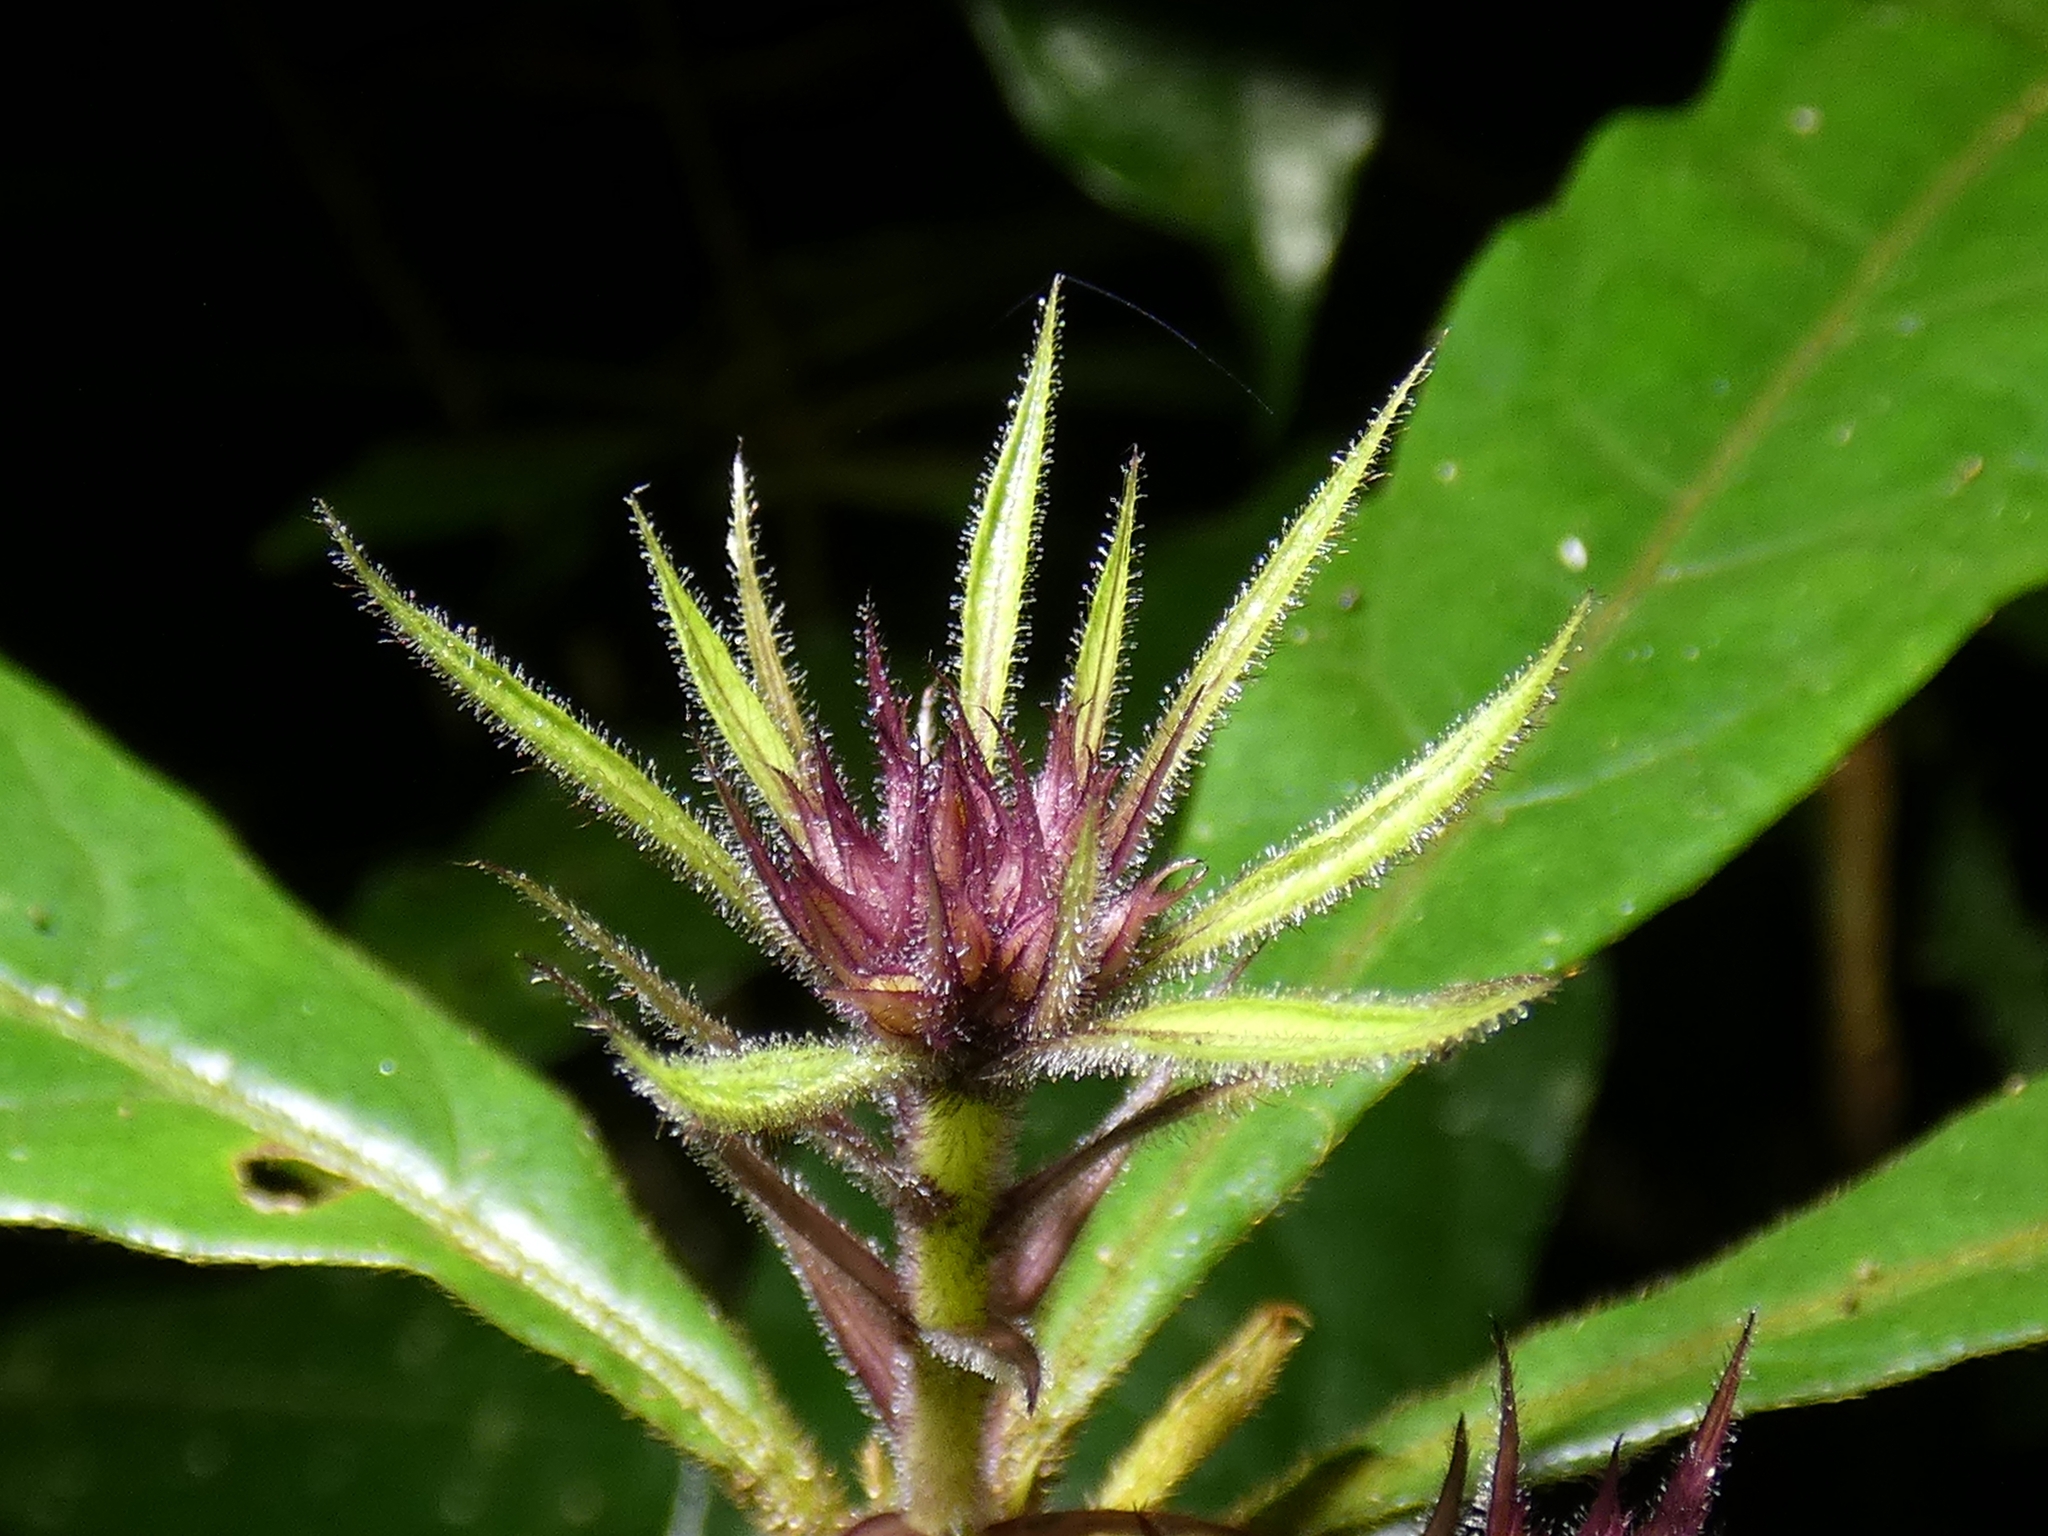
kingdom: Plantae
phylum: Tracheophyta
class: Magnoliopsida
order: Apiales
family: Pittosporaceae
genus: Pittosporum
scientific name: Pittosporum rubiginosum
